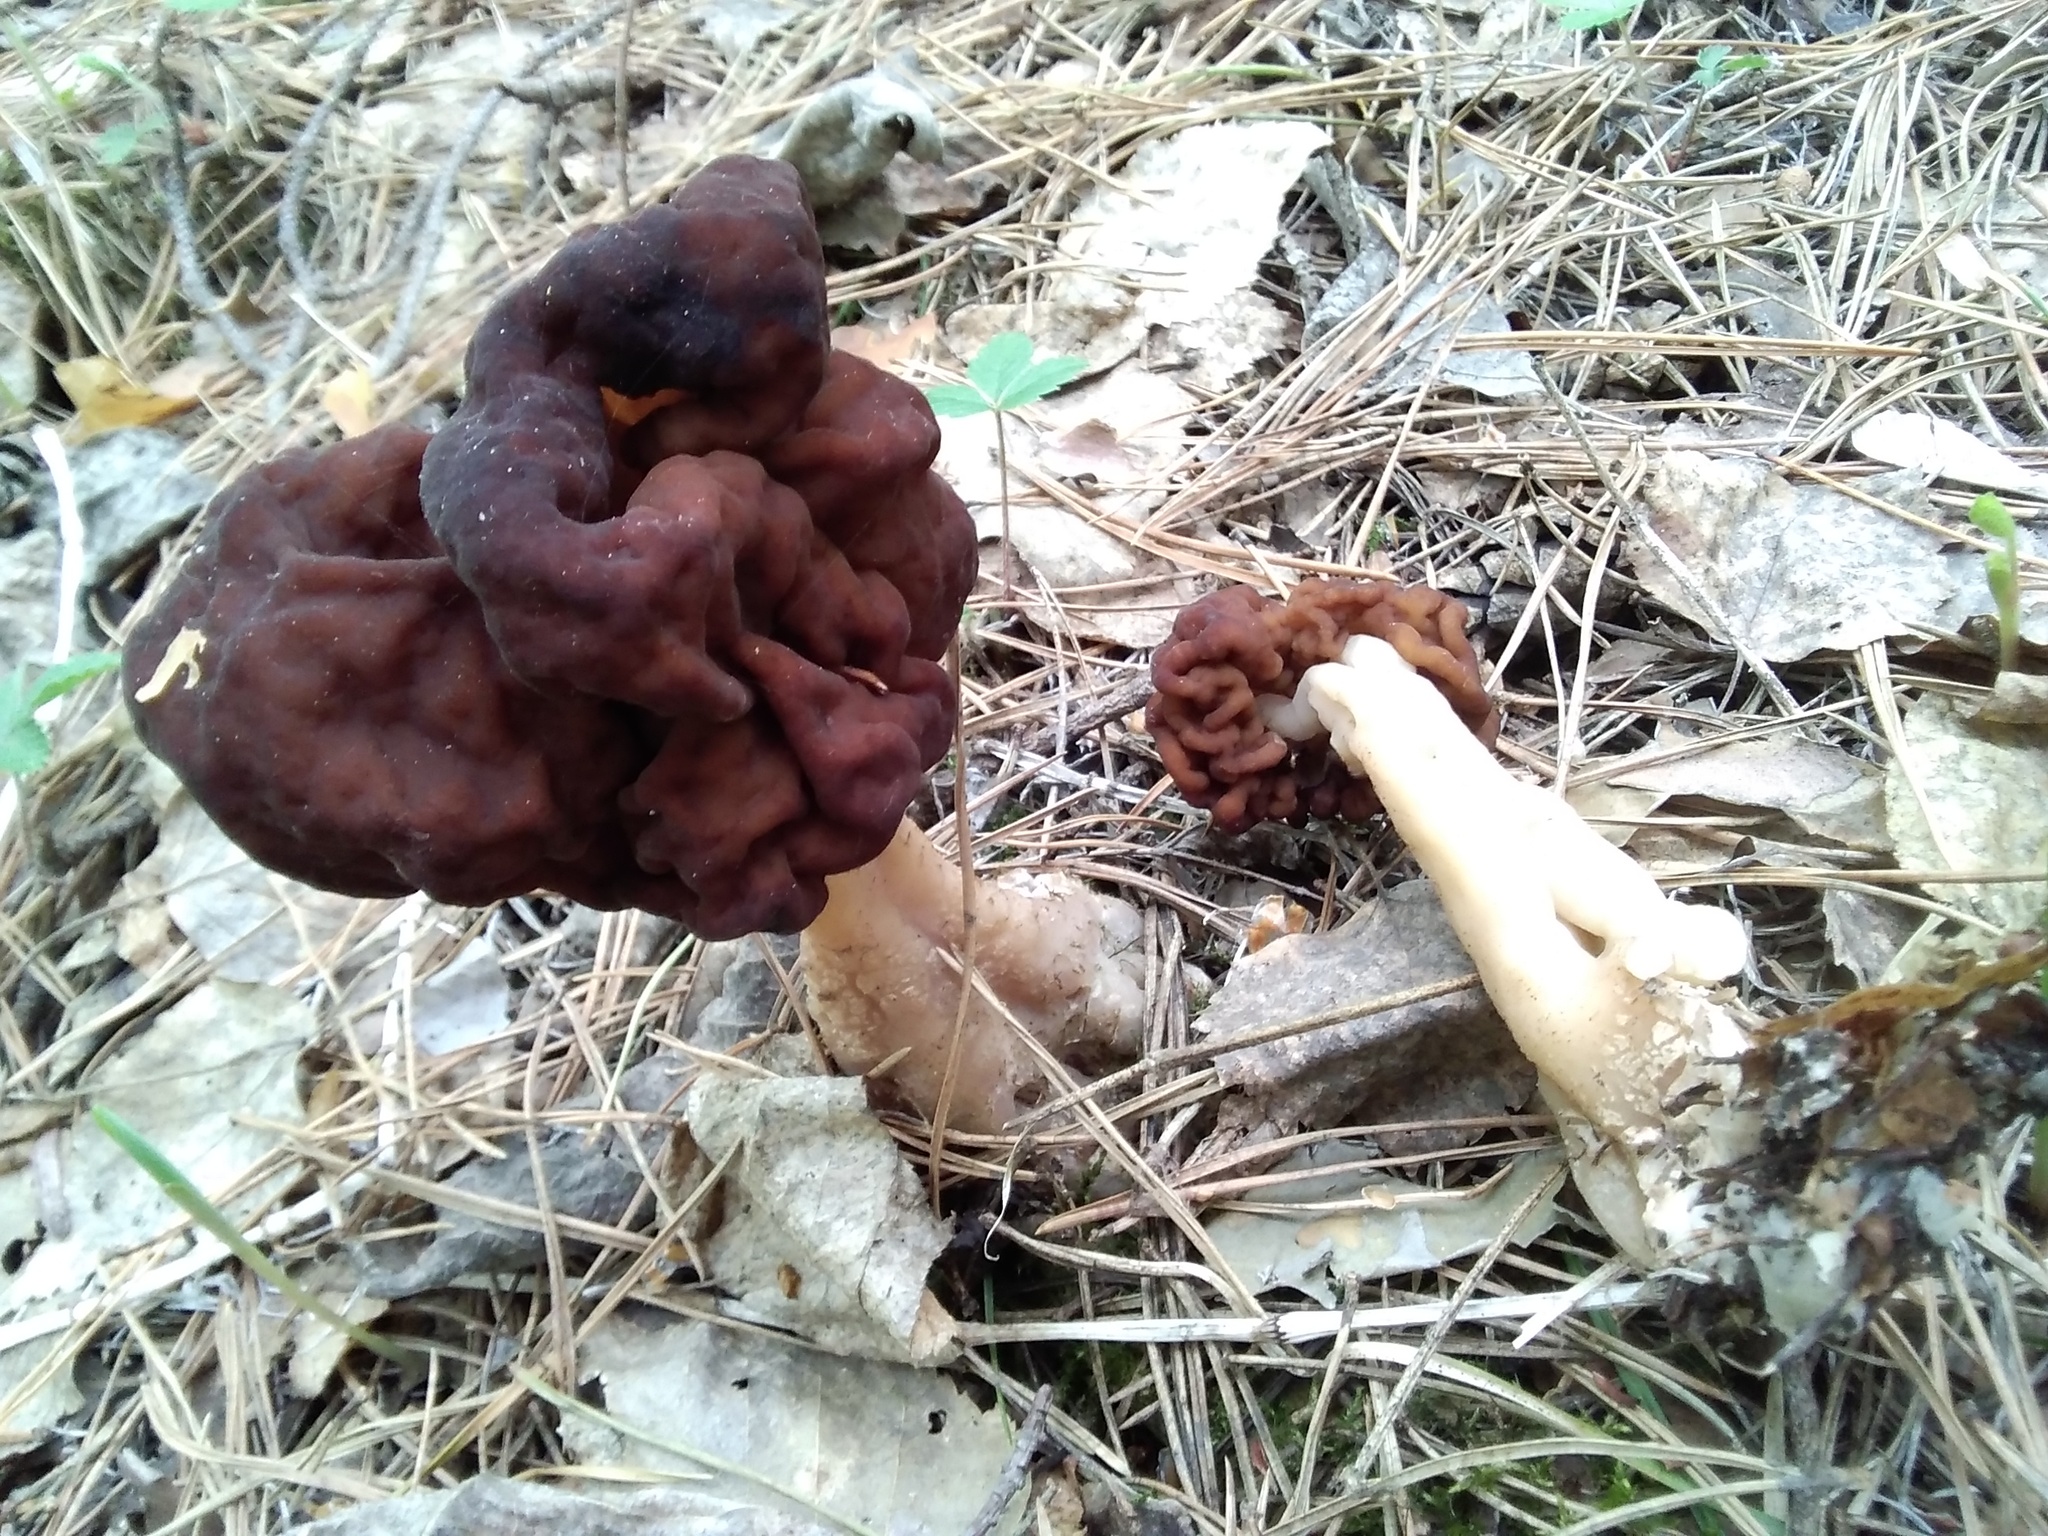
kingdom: Fungi
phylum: Ascomycota
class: Pezizomycetes
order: Pezizales
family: Discinaceae
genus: Gyromitra
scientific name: Gyromitra esculenta
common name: False morel
